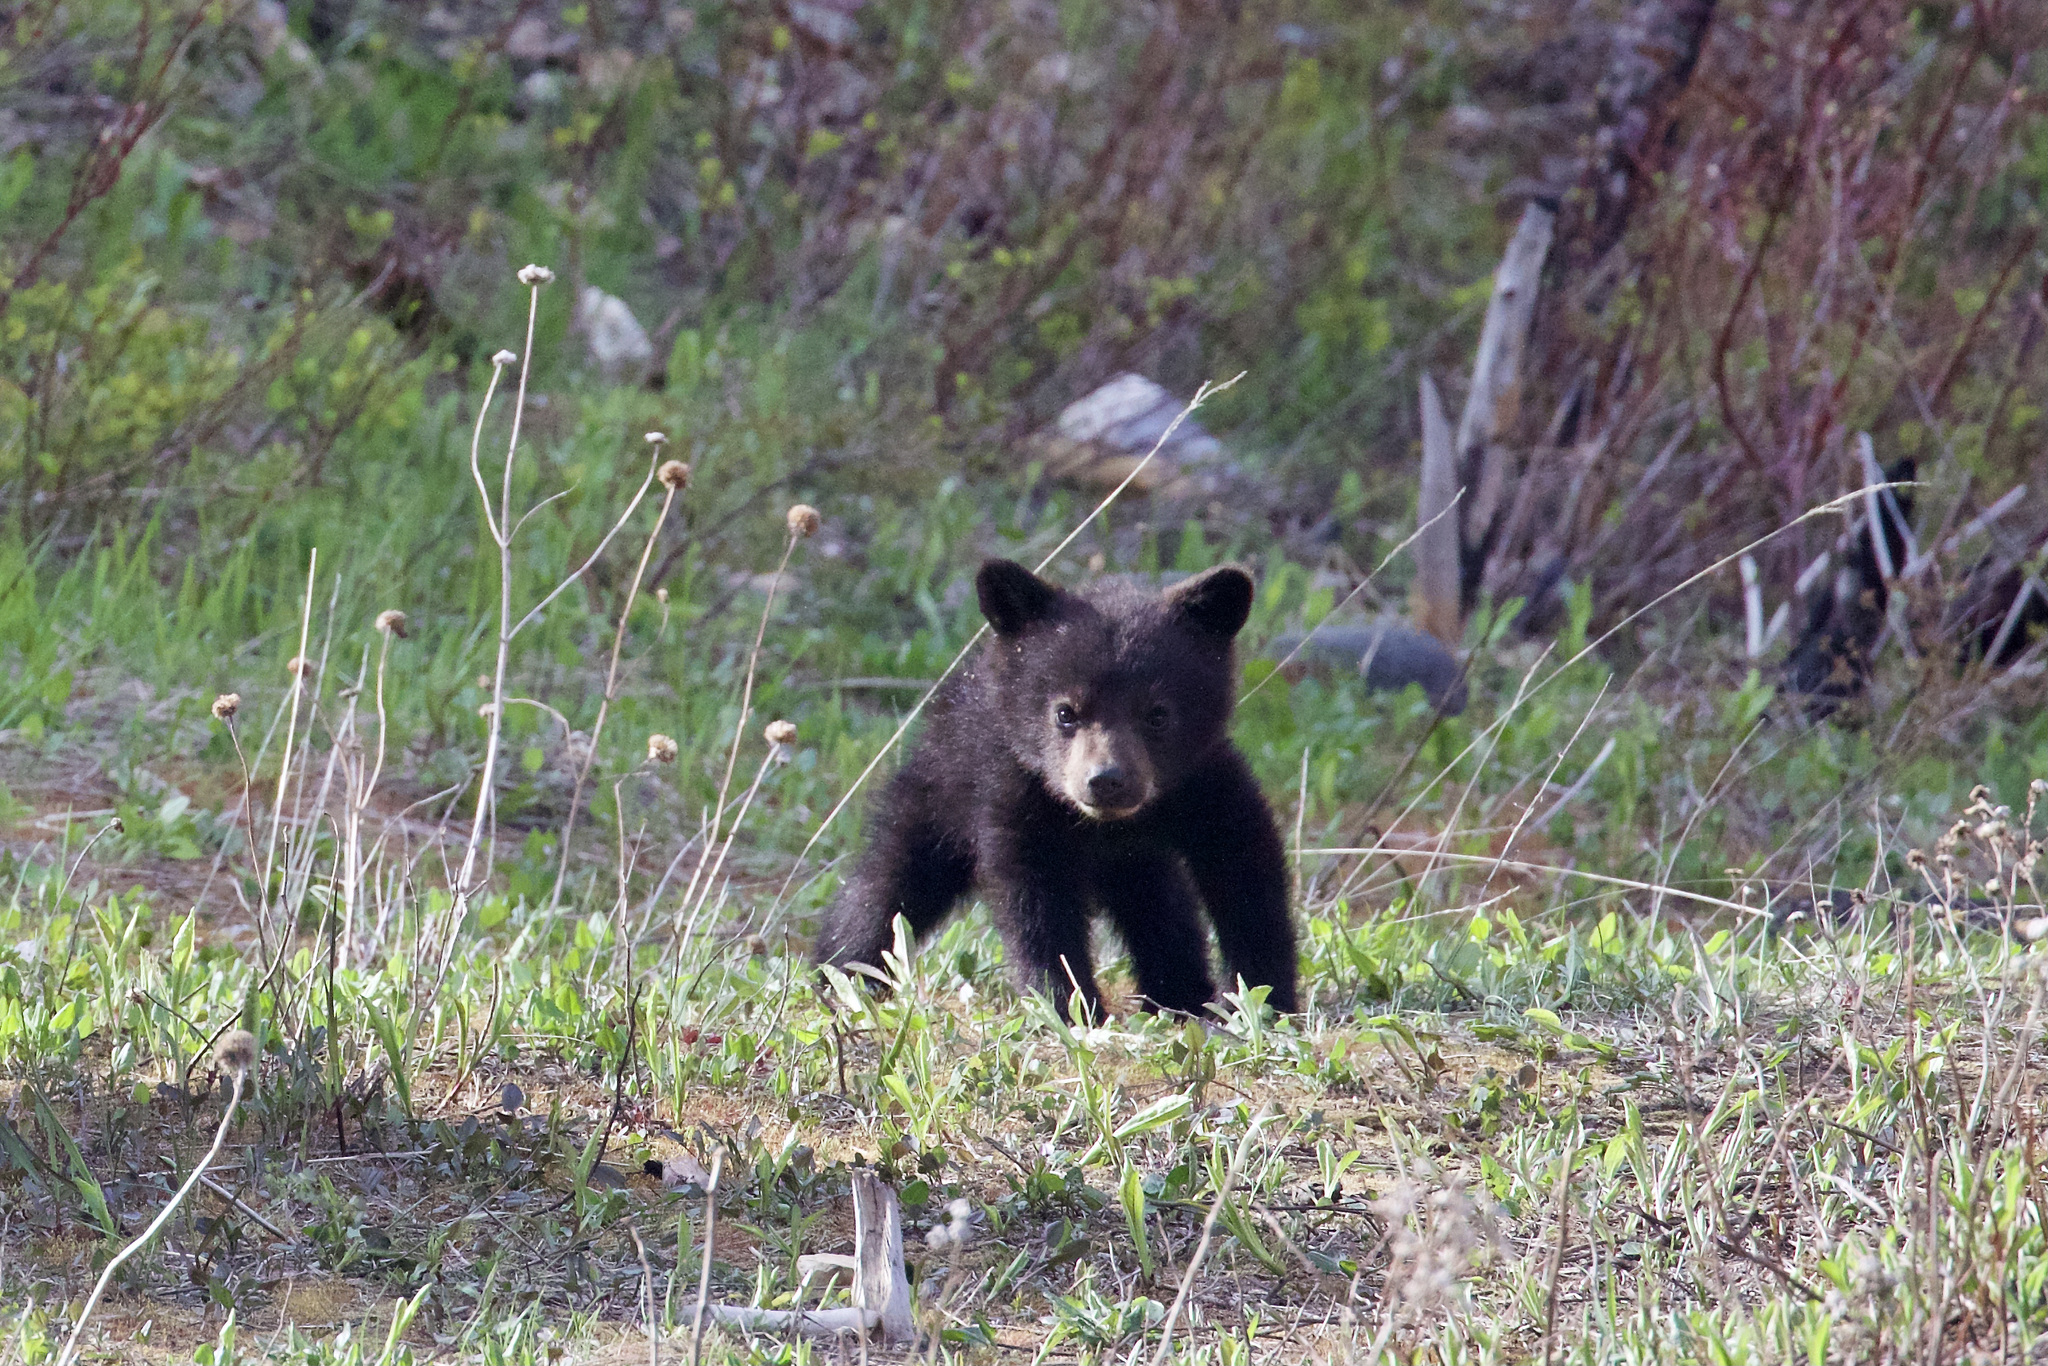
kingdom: Animalia
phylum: Chordata
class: Mammalia
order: Carnivora
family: Ursidae
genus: Ursus
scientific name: Ursus americanus
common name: American black bear
